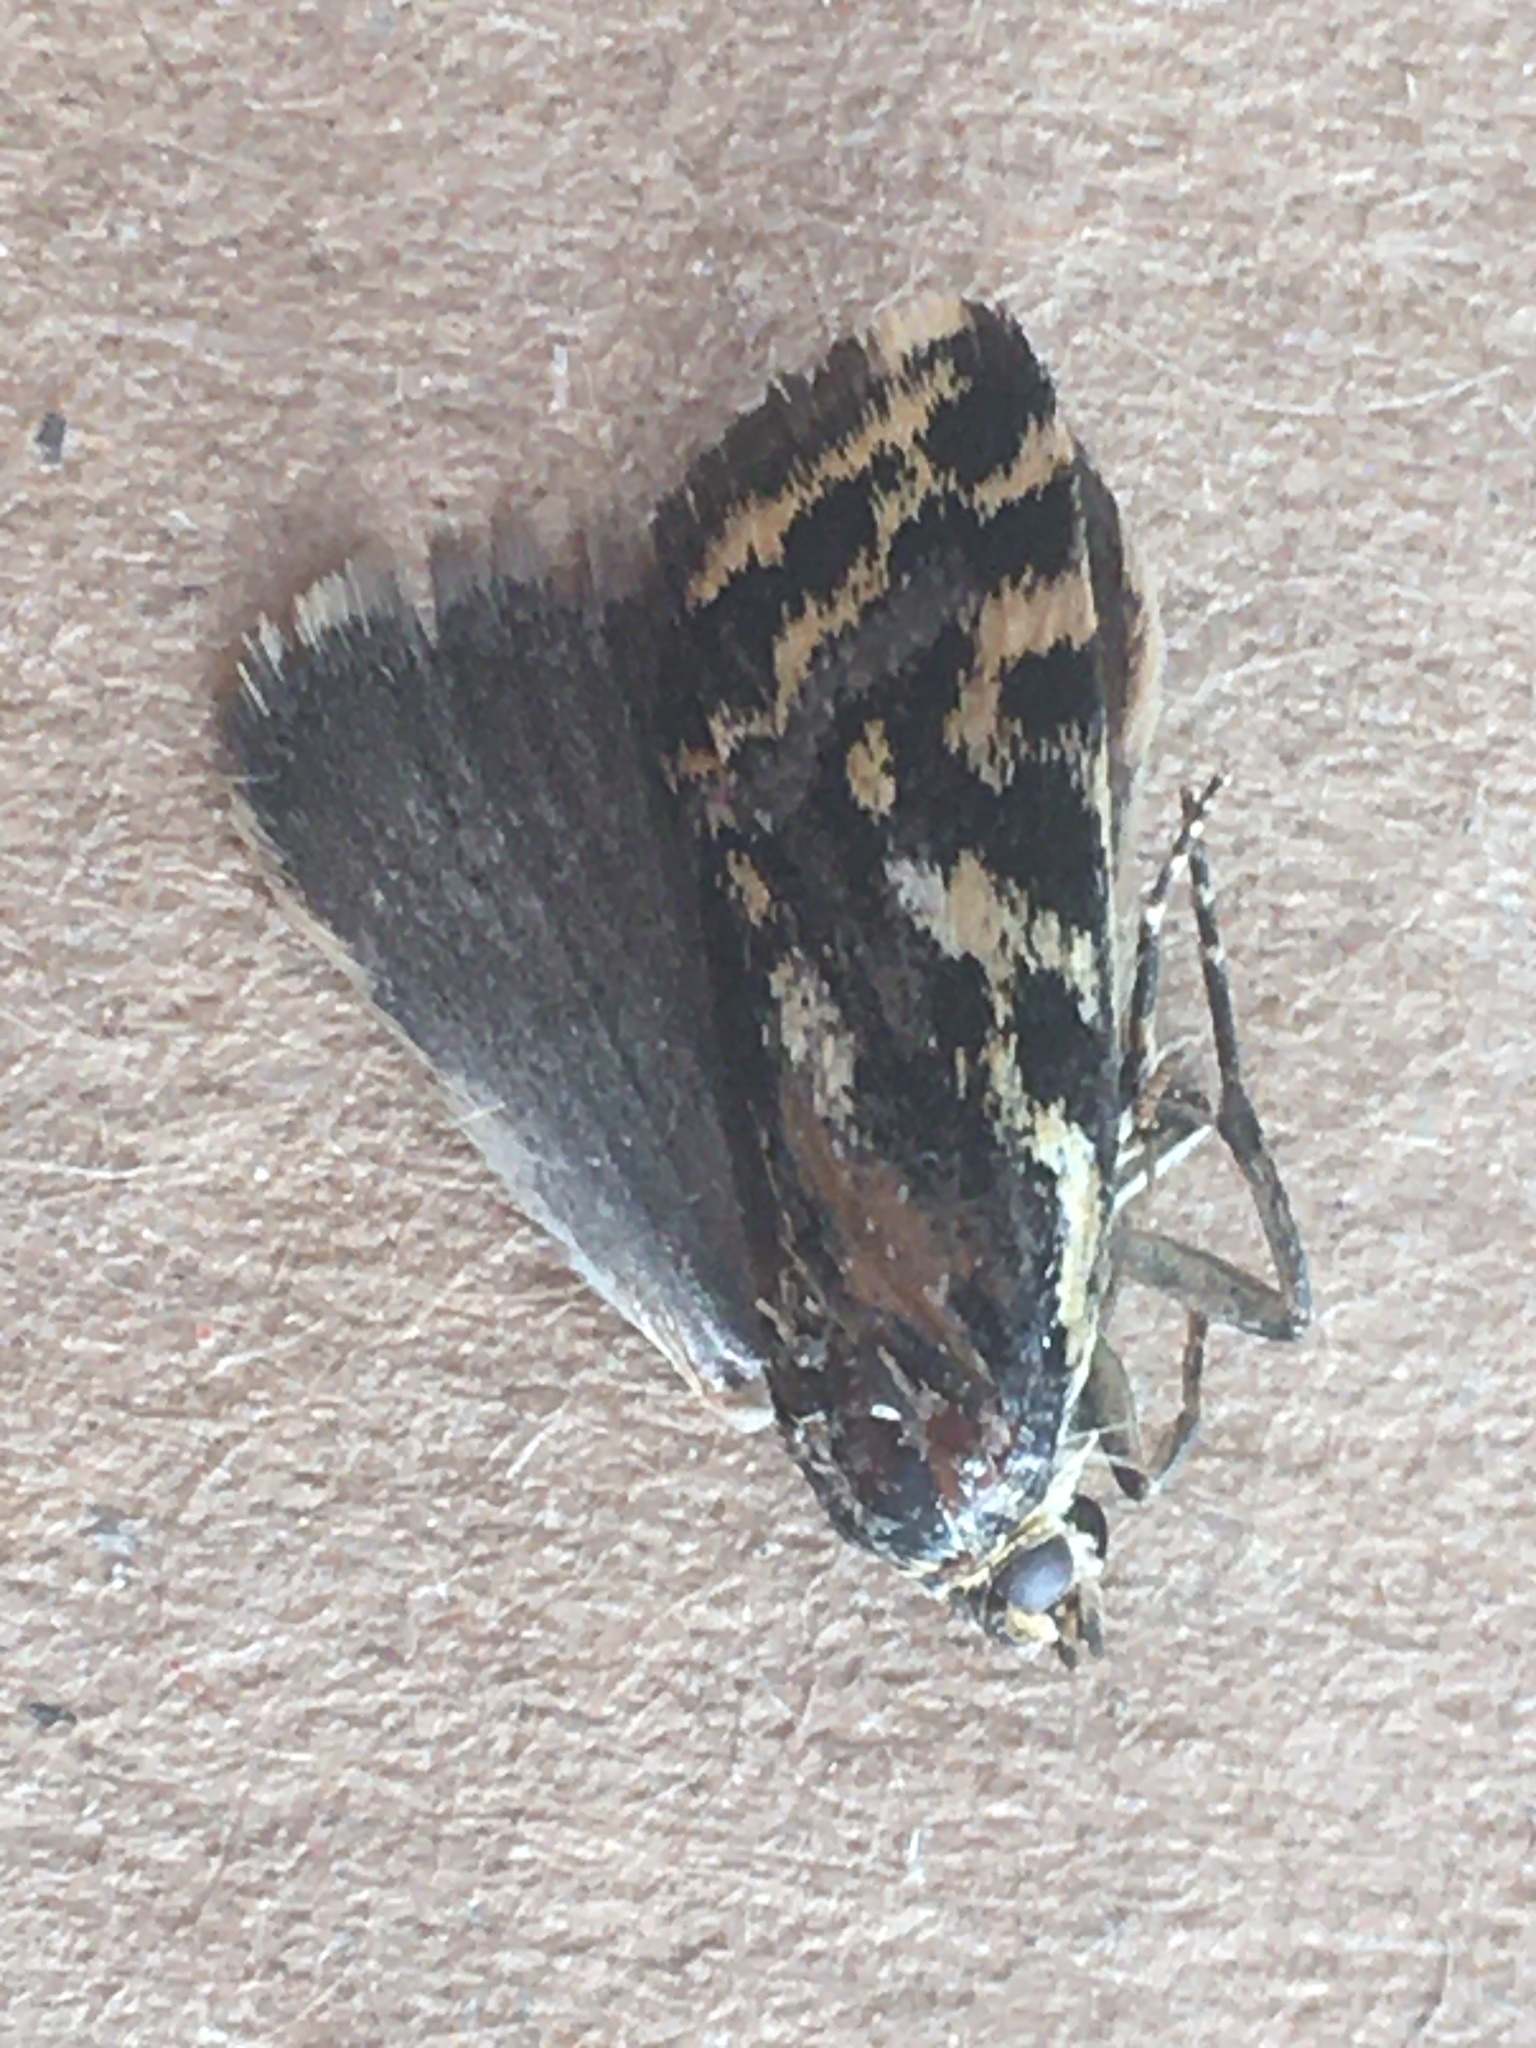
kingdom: Animalia
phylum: Arthropoda
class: Insecta
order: Lepidoptera
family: Noctuidae
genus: Acontia
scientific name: Acontia trabealis
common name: Spotted sulphur
